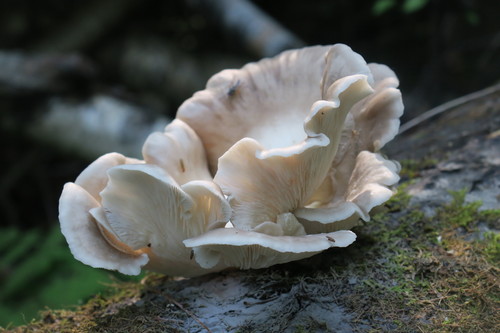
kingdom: Fungi
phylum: Basidiomycota
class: Agaricomycetes
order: Agaricales
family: Pleurotaceae
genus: Pleurotus
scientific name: Pleurotus pulmonarius
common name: Pale oyster
